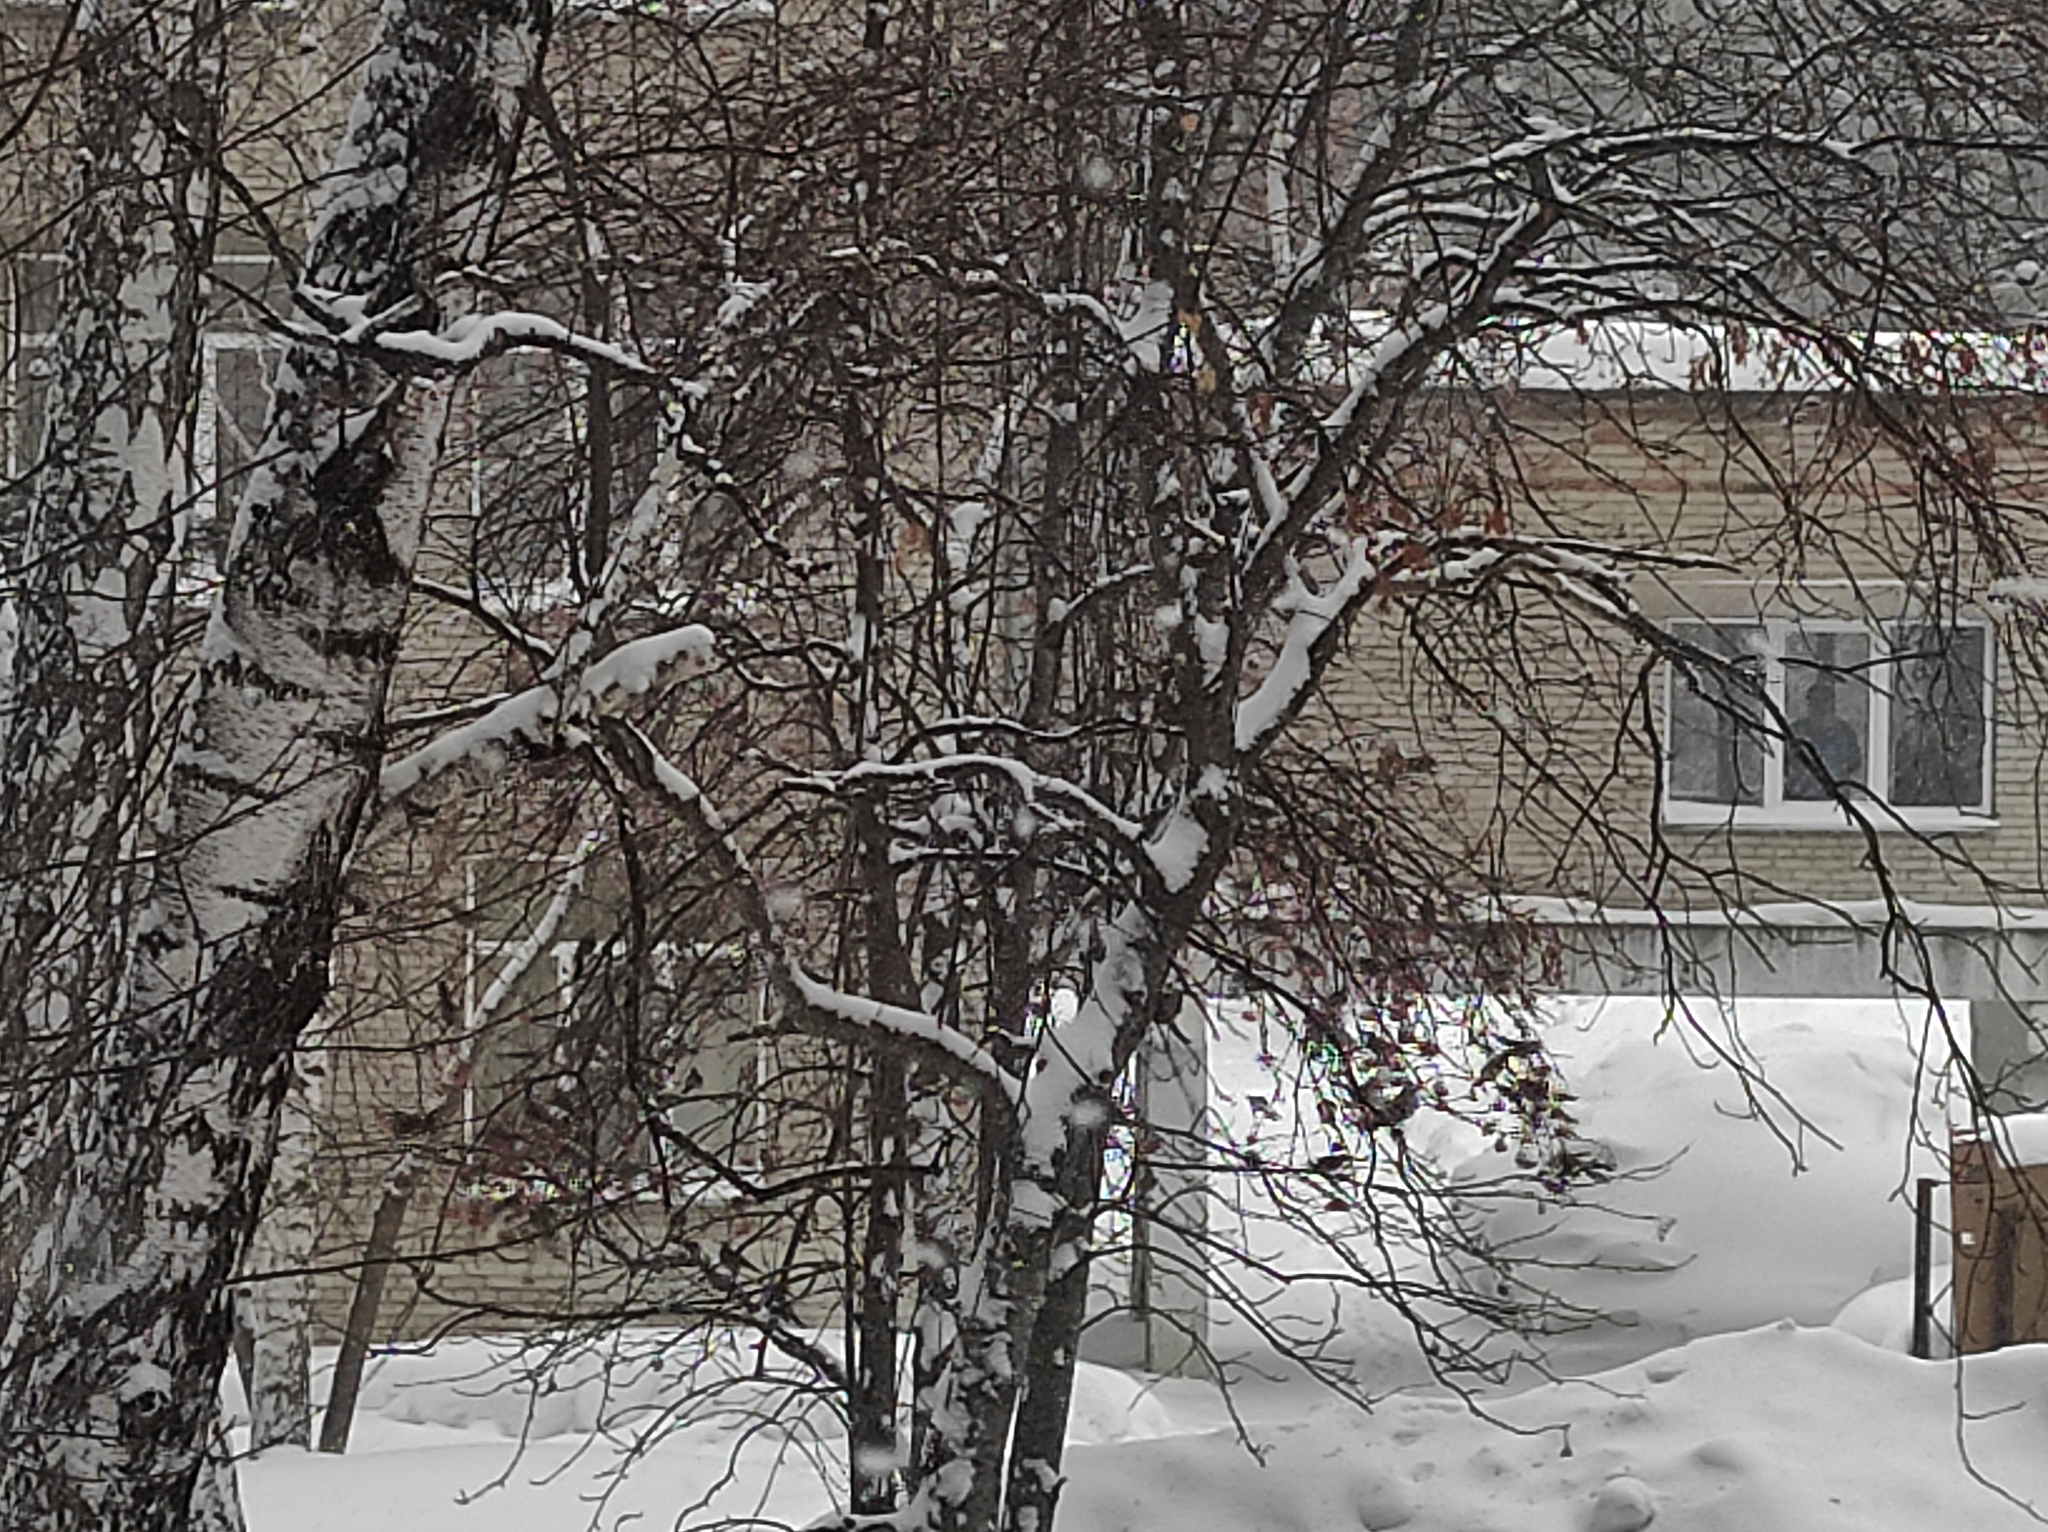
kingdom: Animalia
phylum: Chordata
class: Aves
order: Passeriformes
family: Turdidae
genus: Turdus
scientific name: Turdus pilaris
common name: Fieldfare
